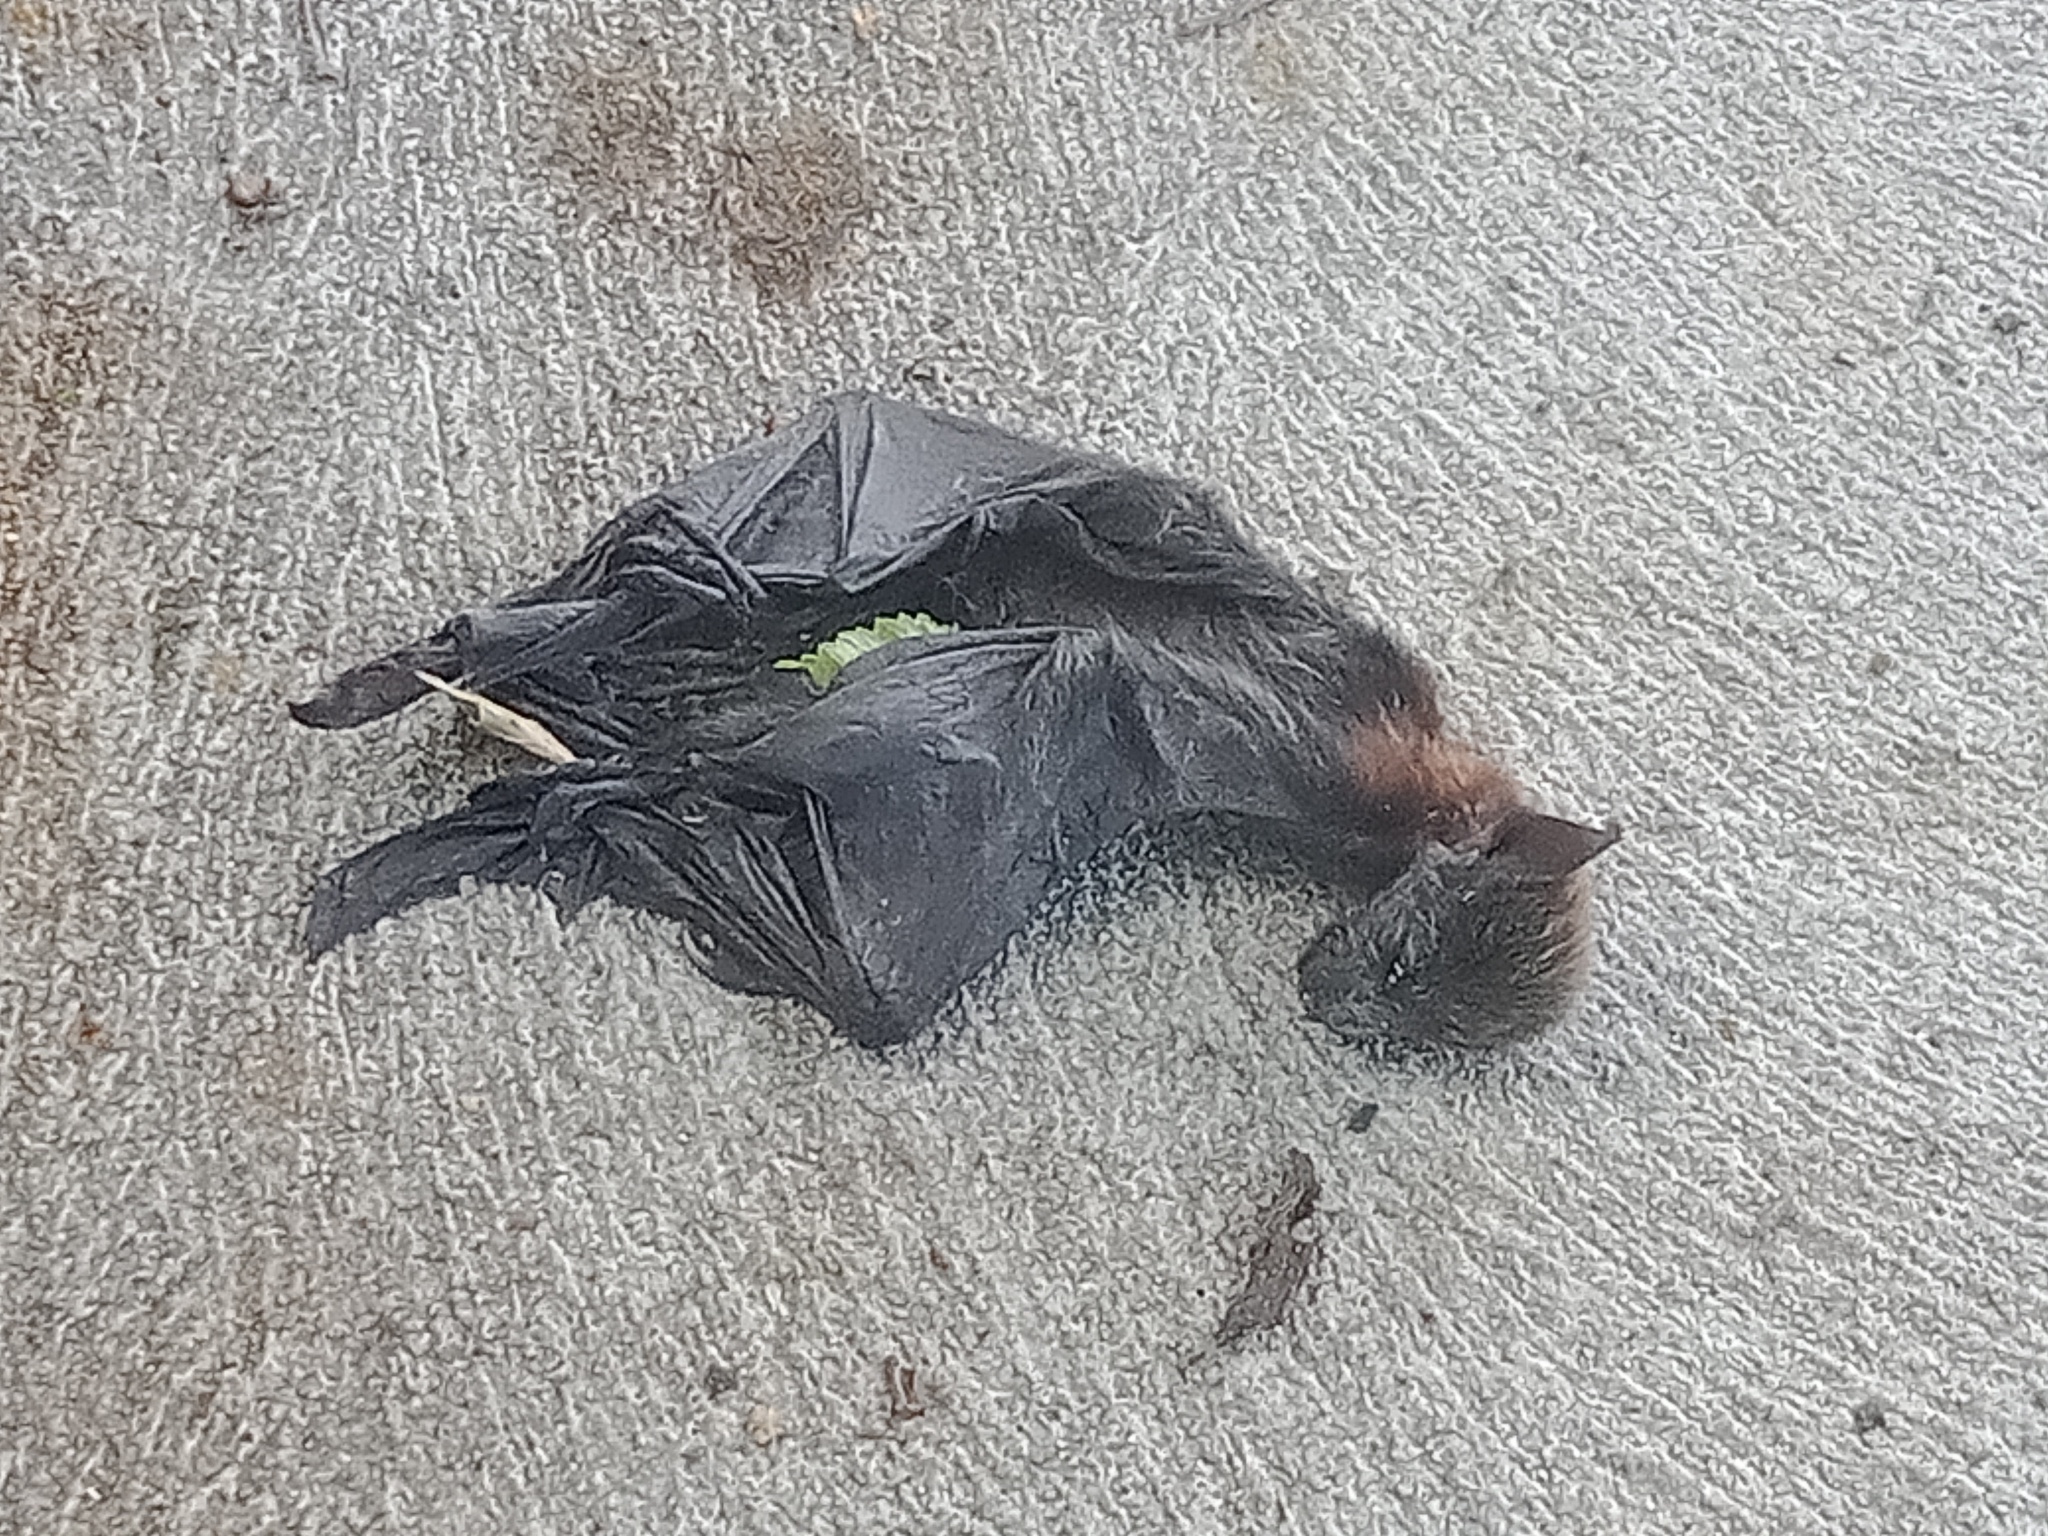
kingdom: Animalia
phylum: Chordata
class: Mammalia
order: Chiroptera
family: Pteropodidae
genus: Pteropus
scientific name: Pteropus poliocephalus
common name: Gray-headed flying fox
